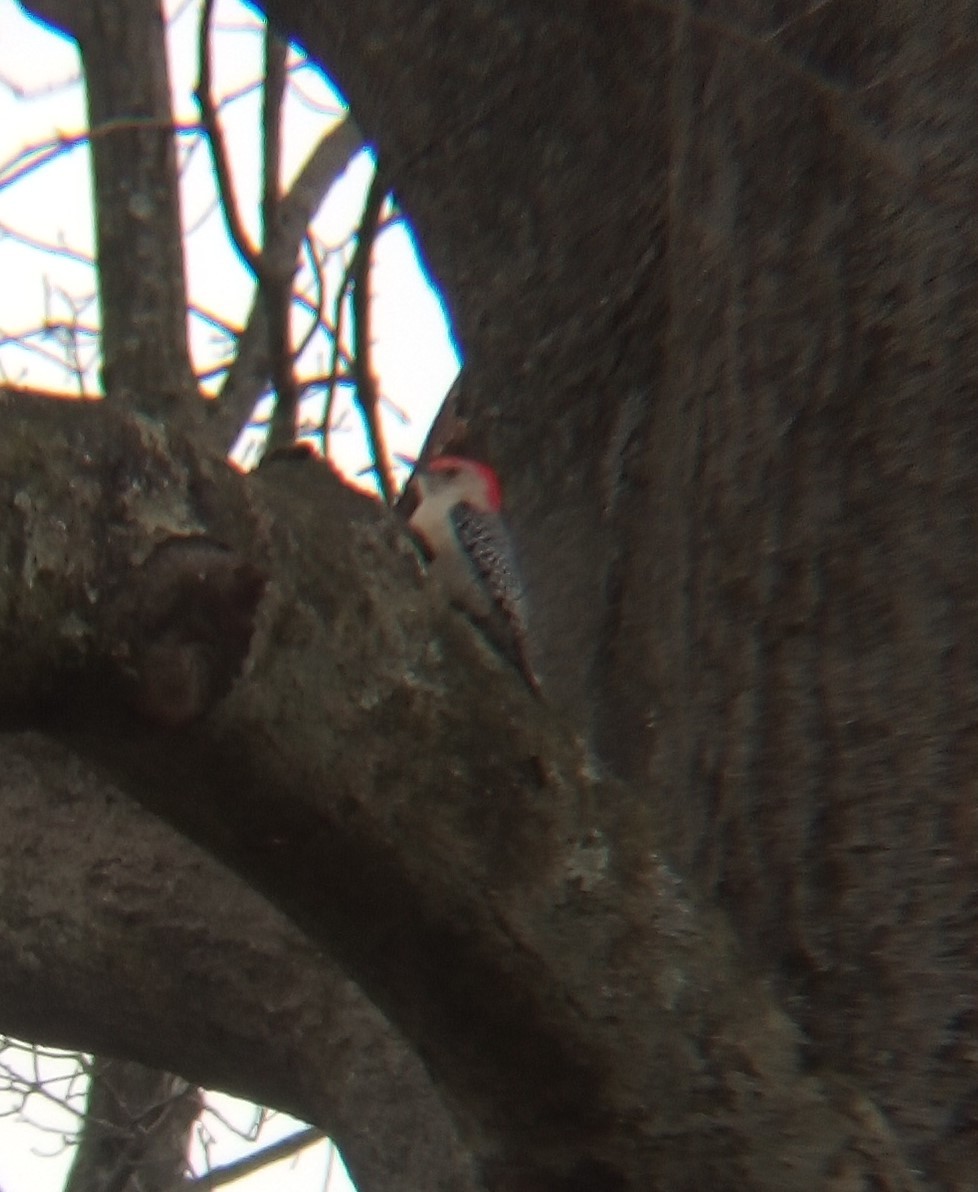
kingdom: Animalia
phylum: Chordata
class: Aves
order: Piciformes
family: Picidae
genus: Melanerpes
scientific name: Melanerpes carolinus
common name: Red-bellied woodpecker
